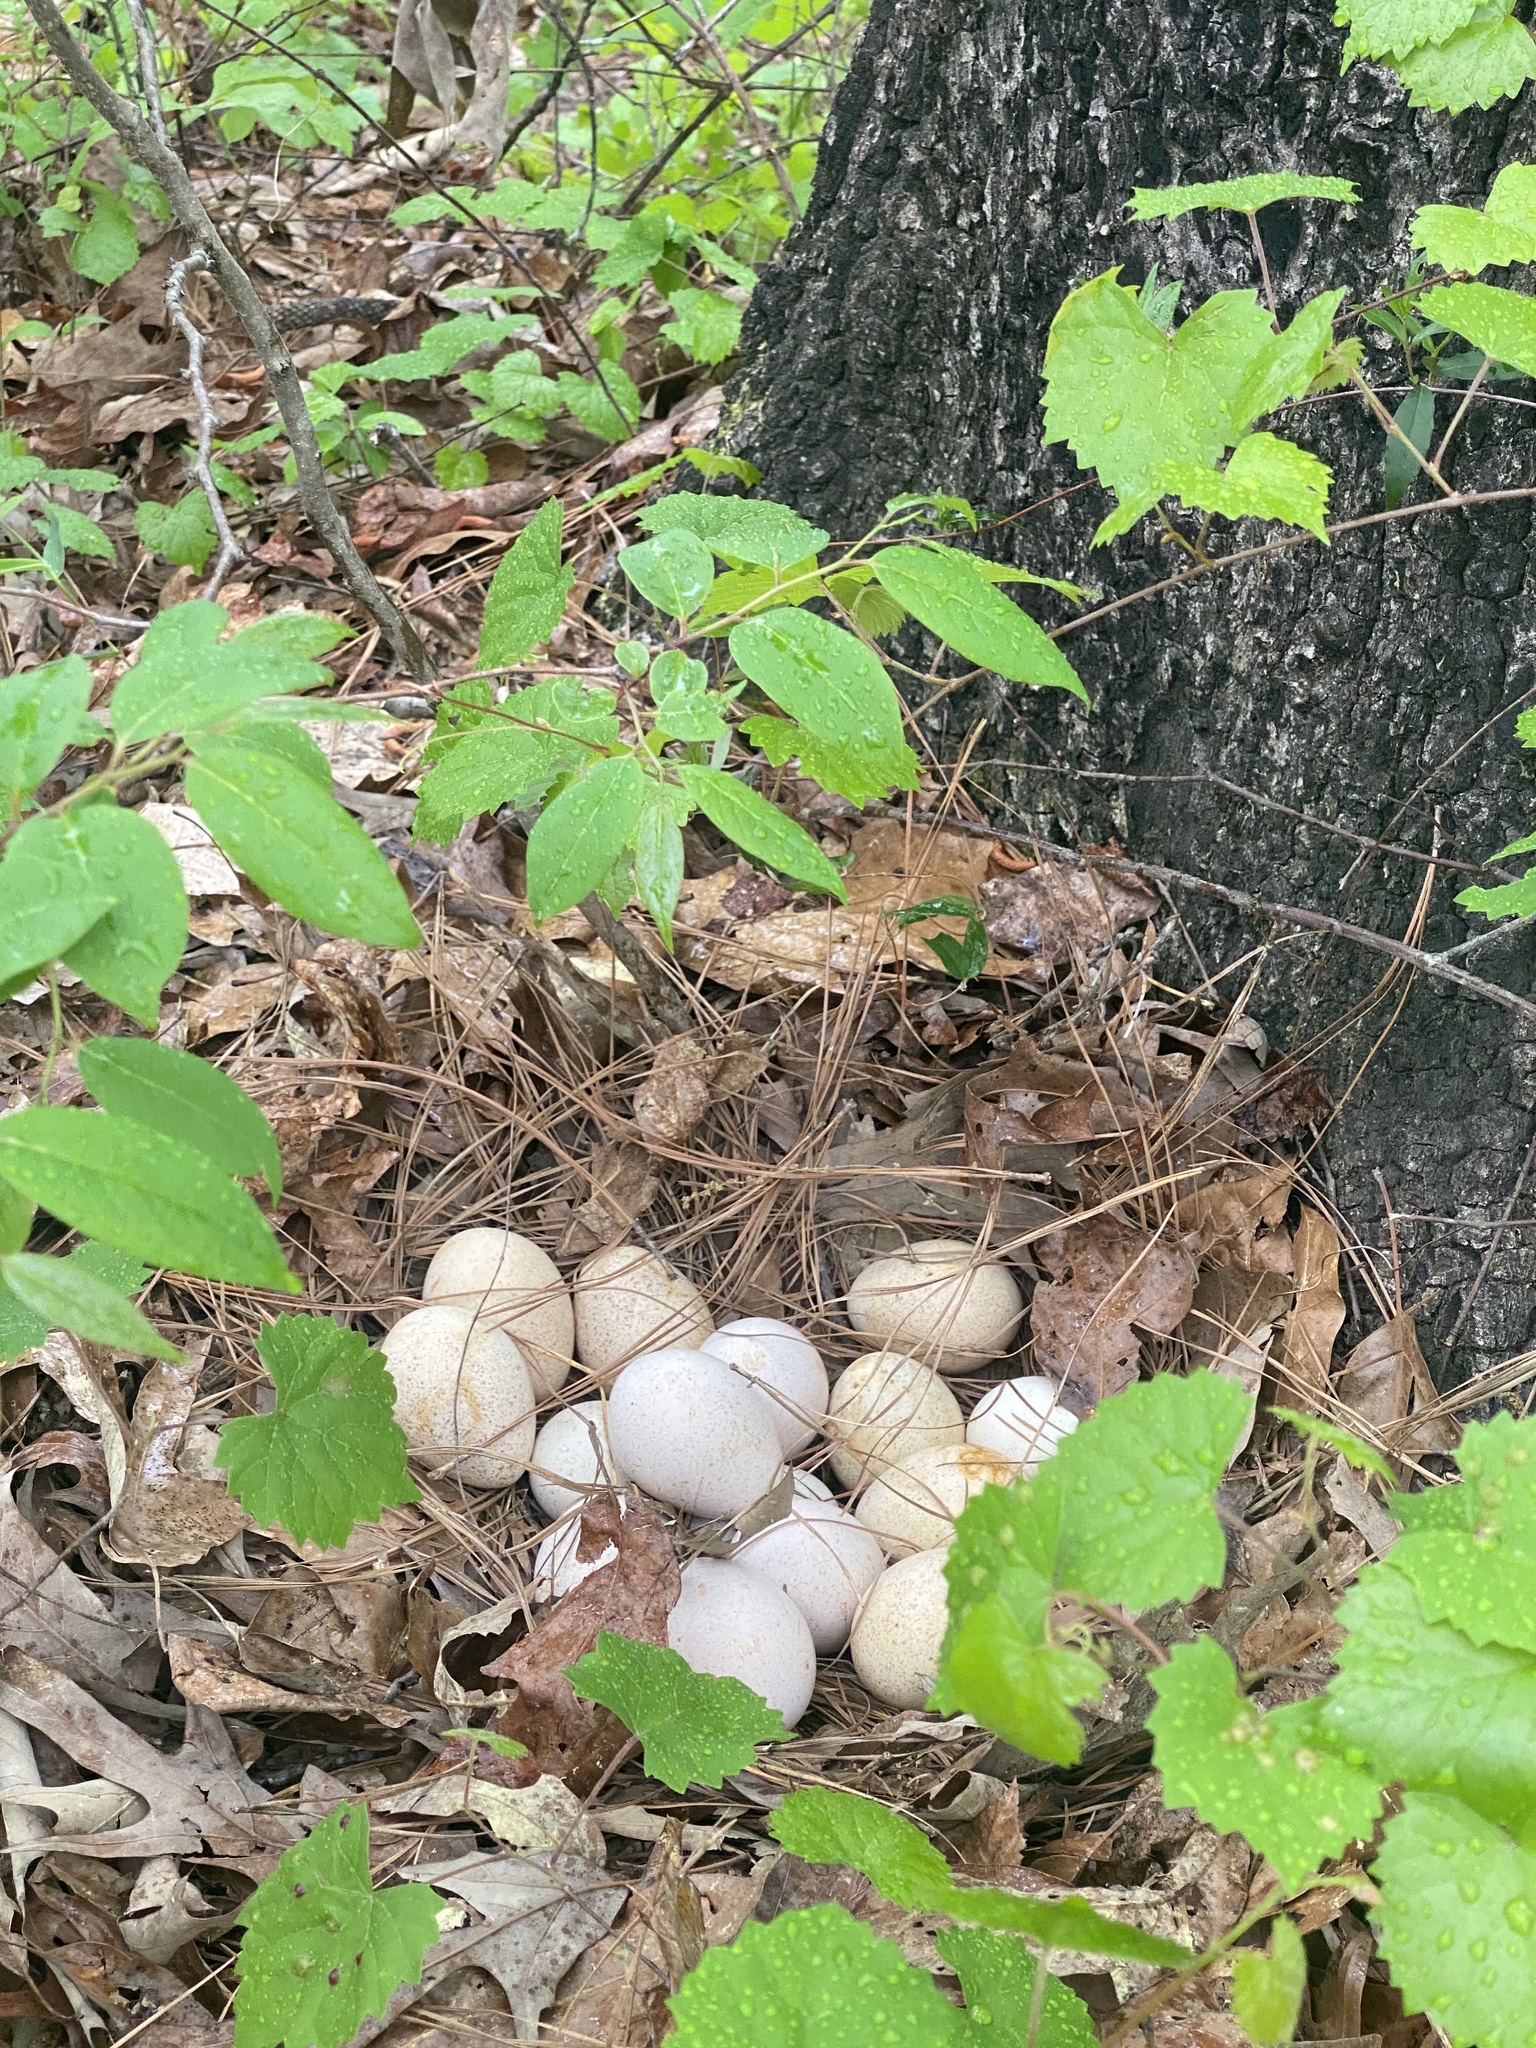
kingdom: Animalia
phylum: Chordata
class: Aves
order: Galliformes
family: Phasianidae
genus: Meleagris
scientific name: Meleagris gallopavo
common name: Wild turkey
